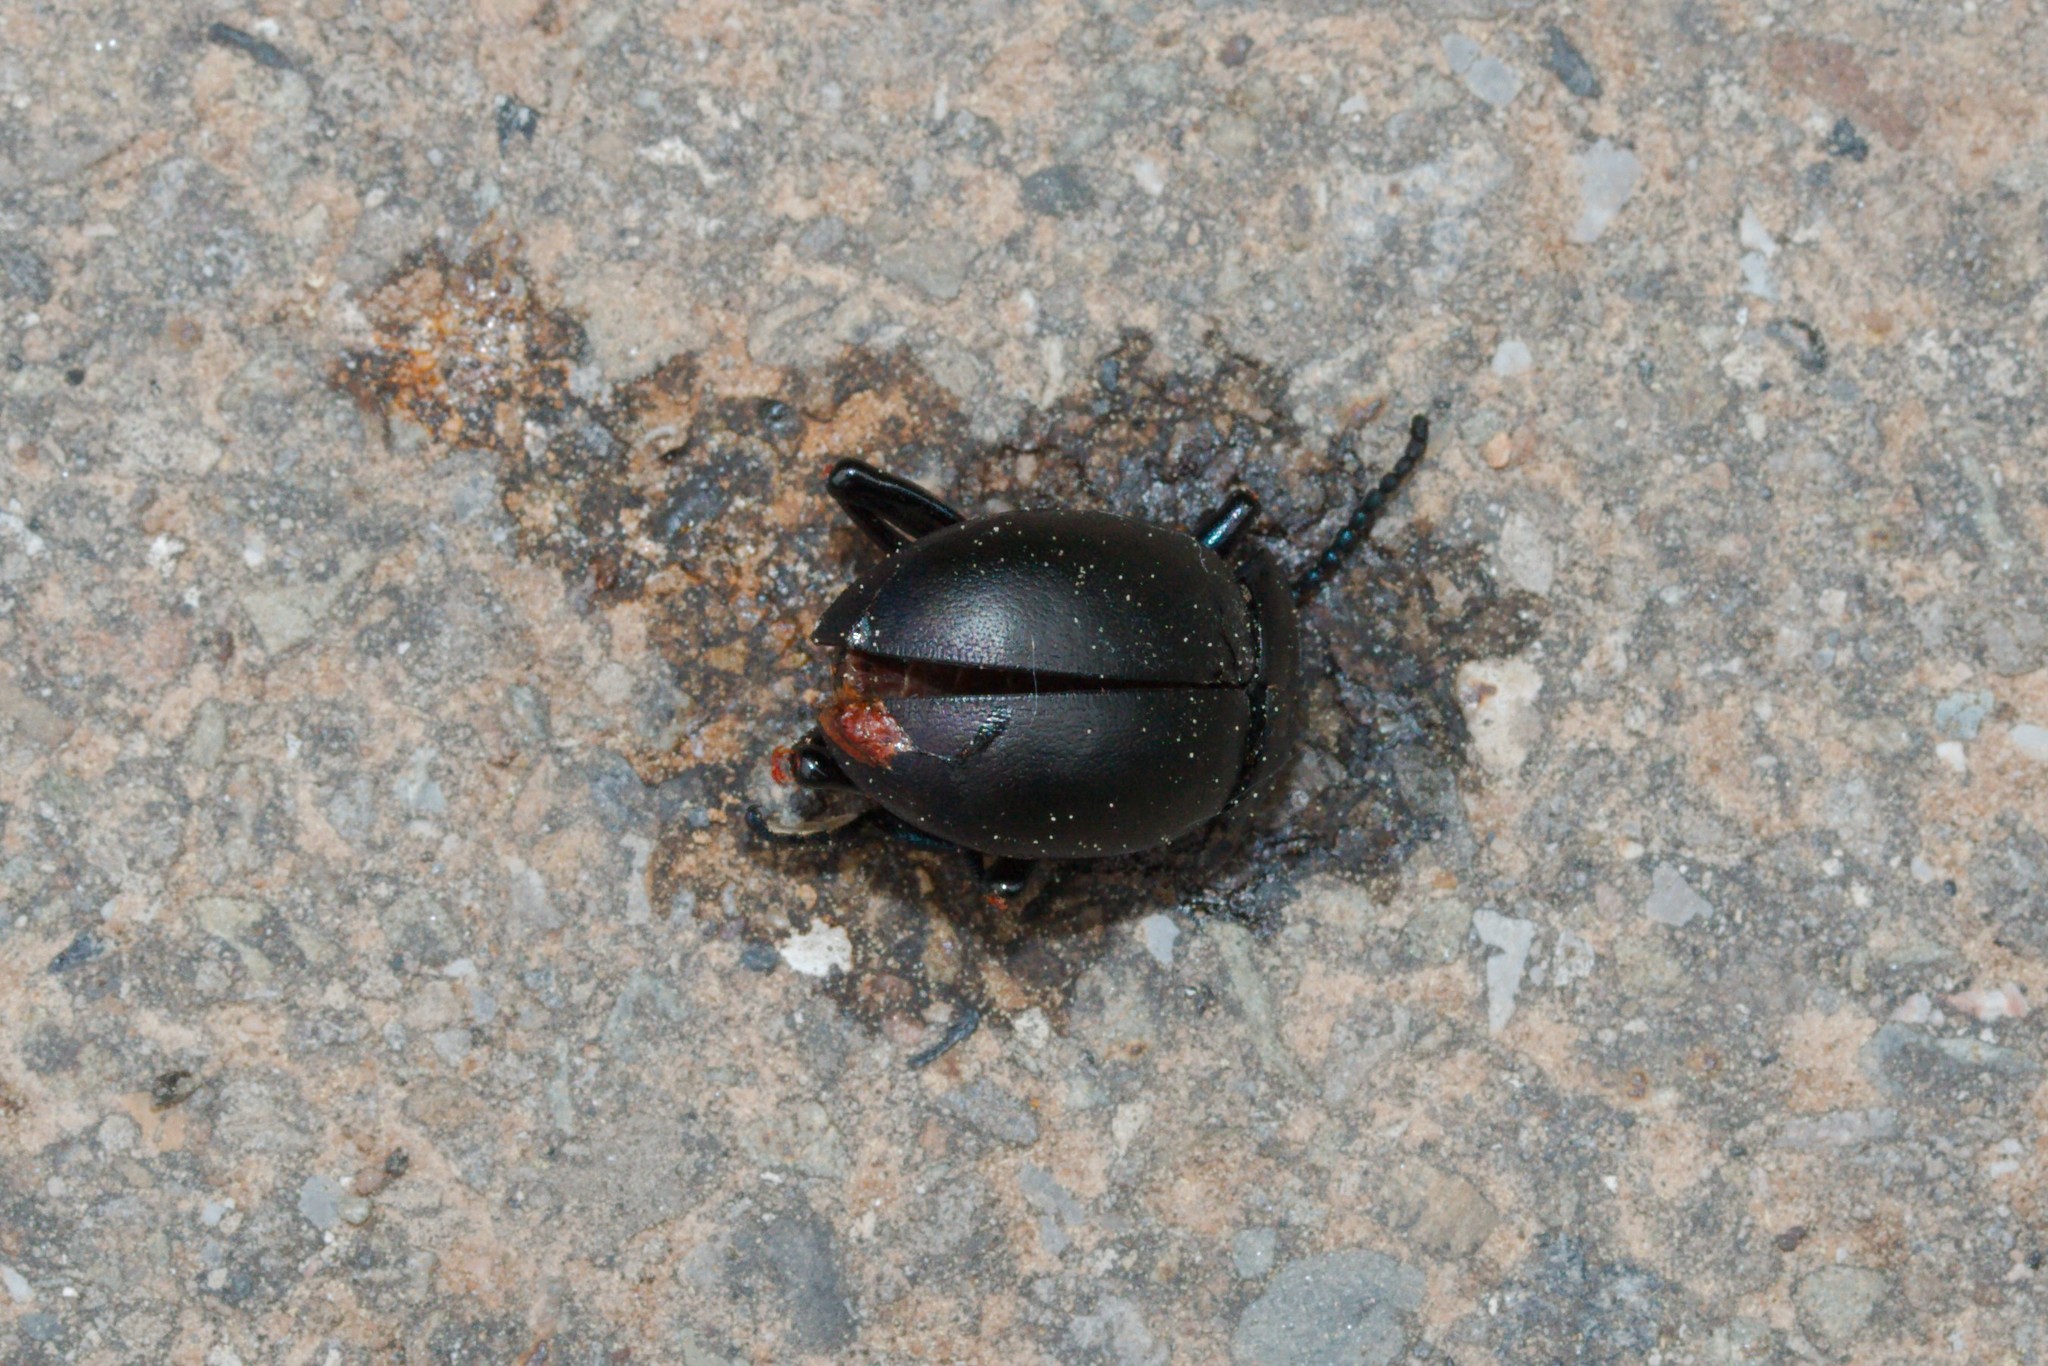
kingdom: Animalia
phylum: Arthropoda
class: Insecta
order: Coleoptera
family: Chrysomelidae
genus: Timarcha
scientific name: Timarcha tenebricosa
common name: Bloody-nosed beetle
